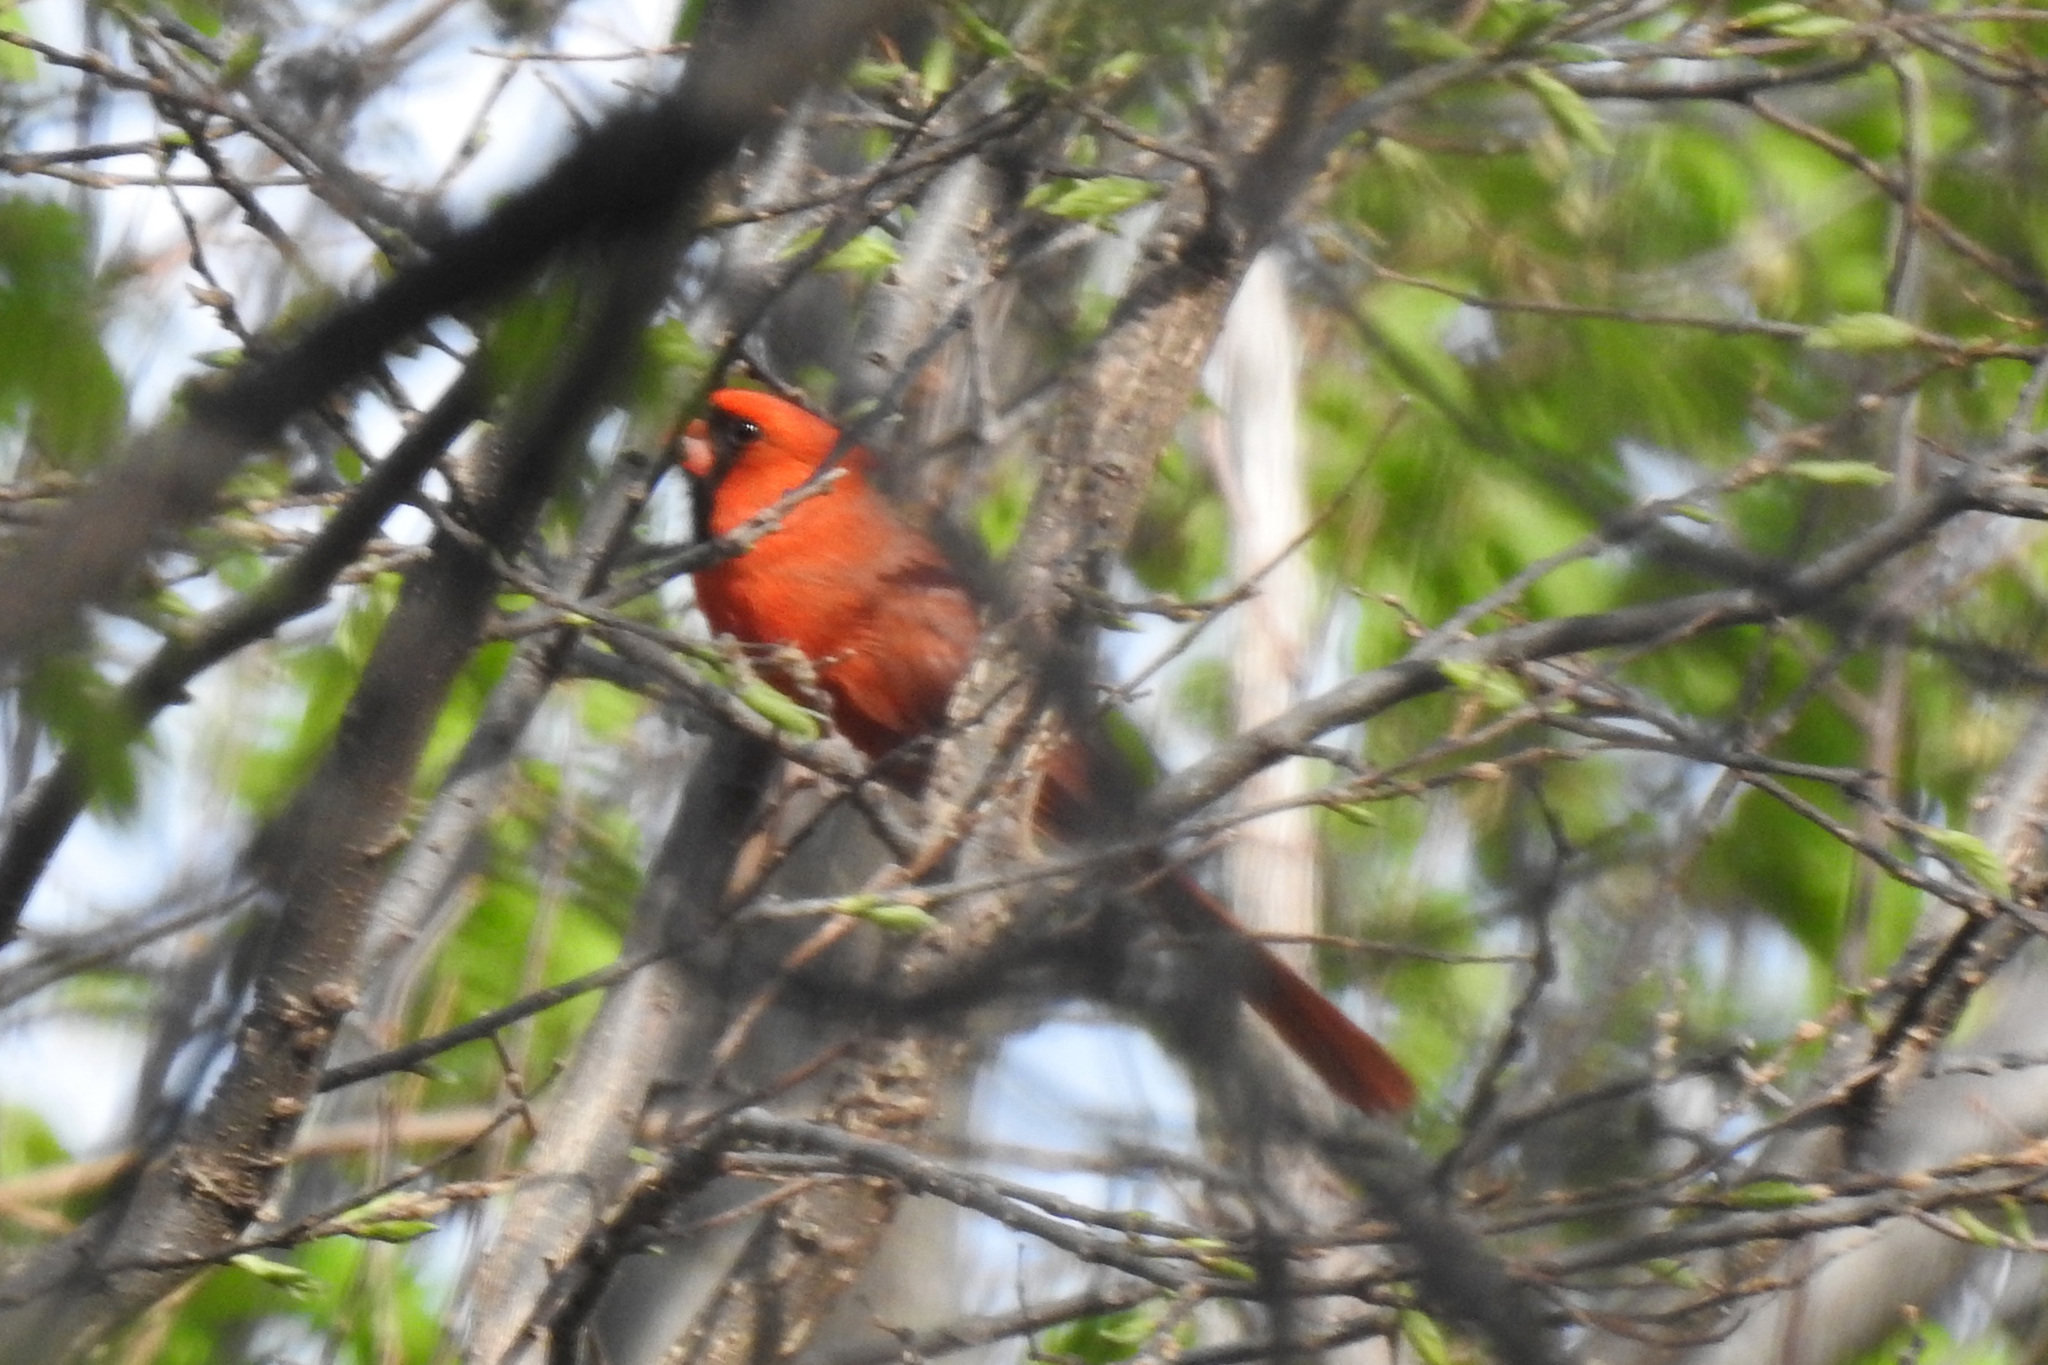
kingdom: Animalia
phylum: Chordata
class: Aves
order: Passeriformes
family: Cardinalidae
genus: Cardinalis
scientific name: Cardinalis cardinalis
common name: Northern cardinal
